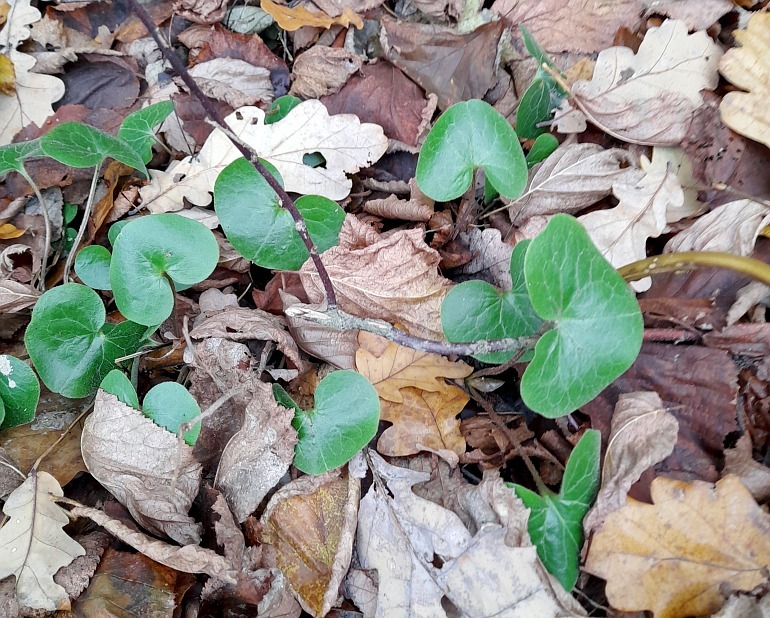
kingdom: Plantae
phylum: Tracheophyta
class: Magnoliopsida
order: Piperales
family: Aristolochiaceae
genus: Asarum
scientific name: Asarum europaeum
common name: Asarabacca
